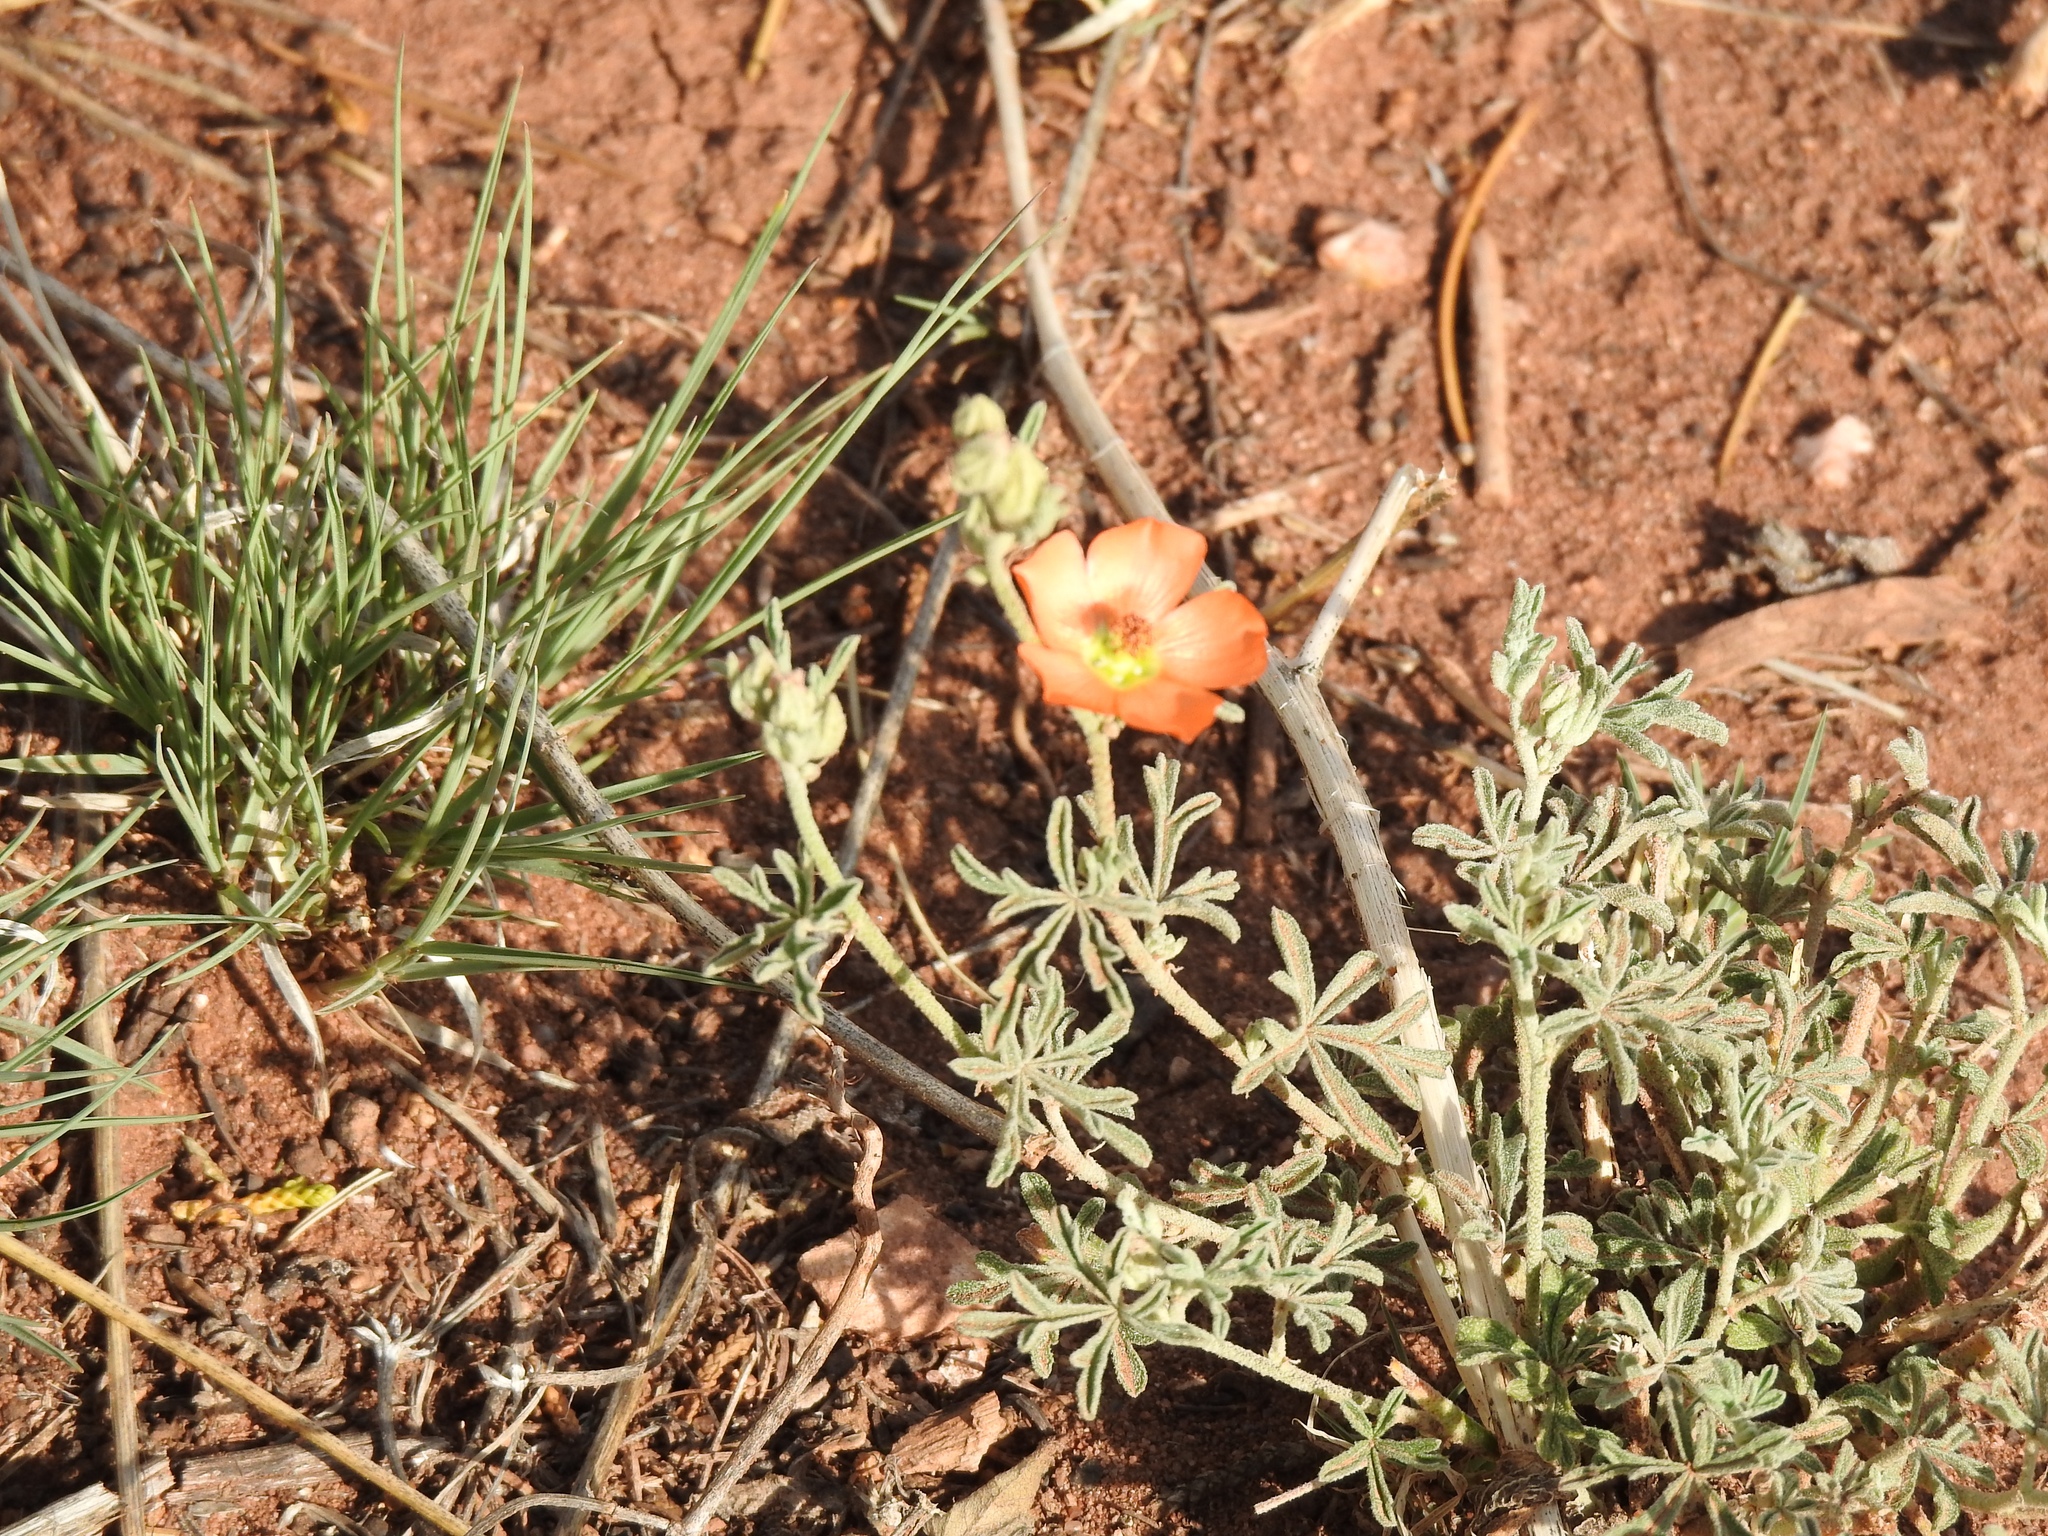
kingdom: Plantae
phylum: Tracheophyta
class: Magnoliopsida
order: Malvales
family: Malvaceae
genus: Sphaeralcea
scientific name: Sphaeralcea coccinea
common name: Moss-rose
